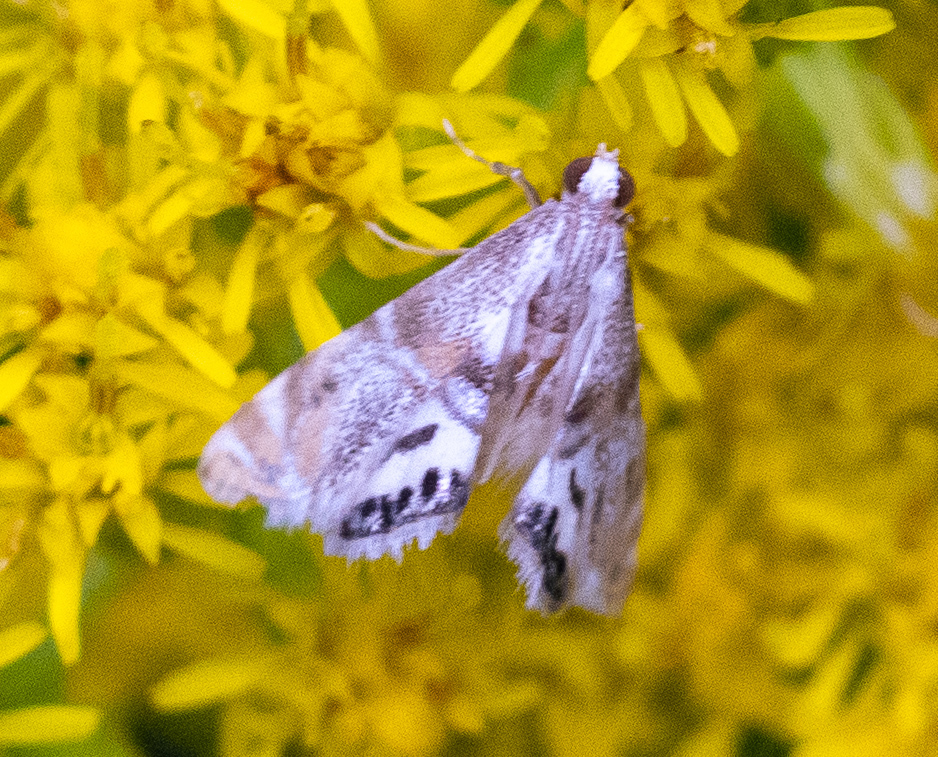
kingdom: Animalia
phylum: Arthropoda
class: Insecta
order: Lepidoptera
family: Crambidae
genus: Petrophila
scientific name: Petrophila bifascialis
